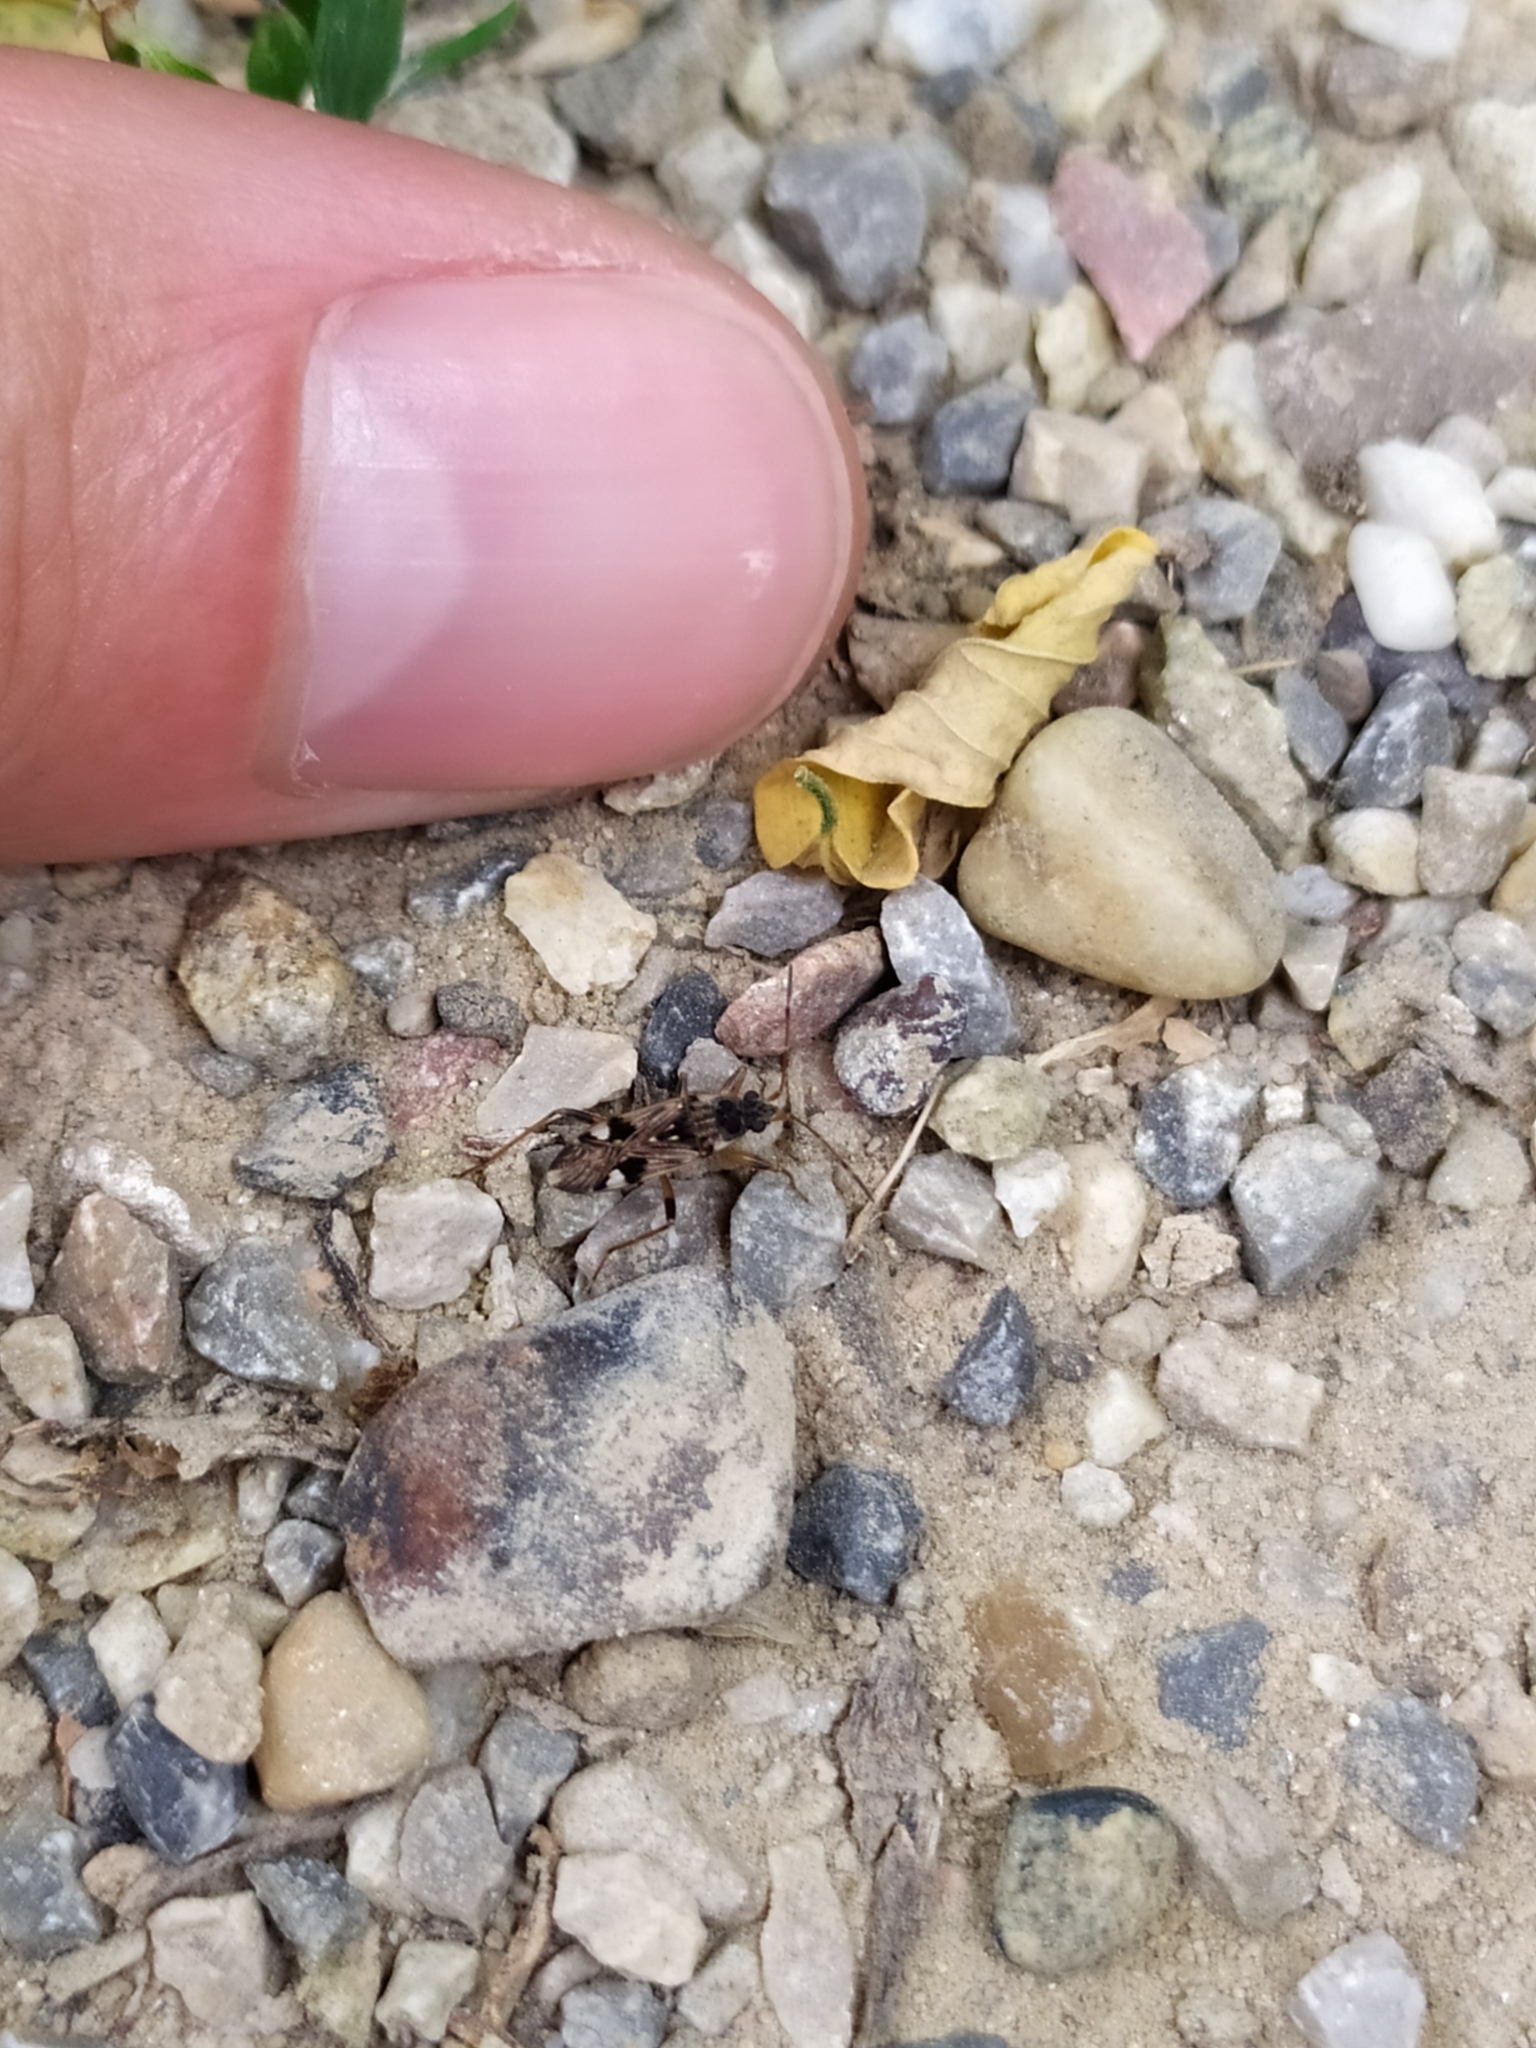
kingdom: Animalia
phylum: Arthropoda
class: Insecta
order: Hemiptera
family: Rhyparochromidae
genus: Beosus
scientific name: Beosus maritimus
